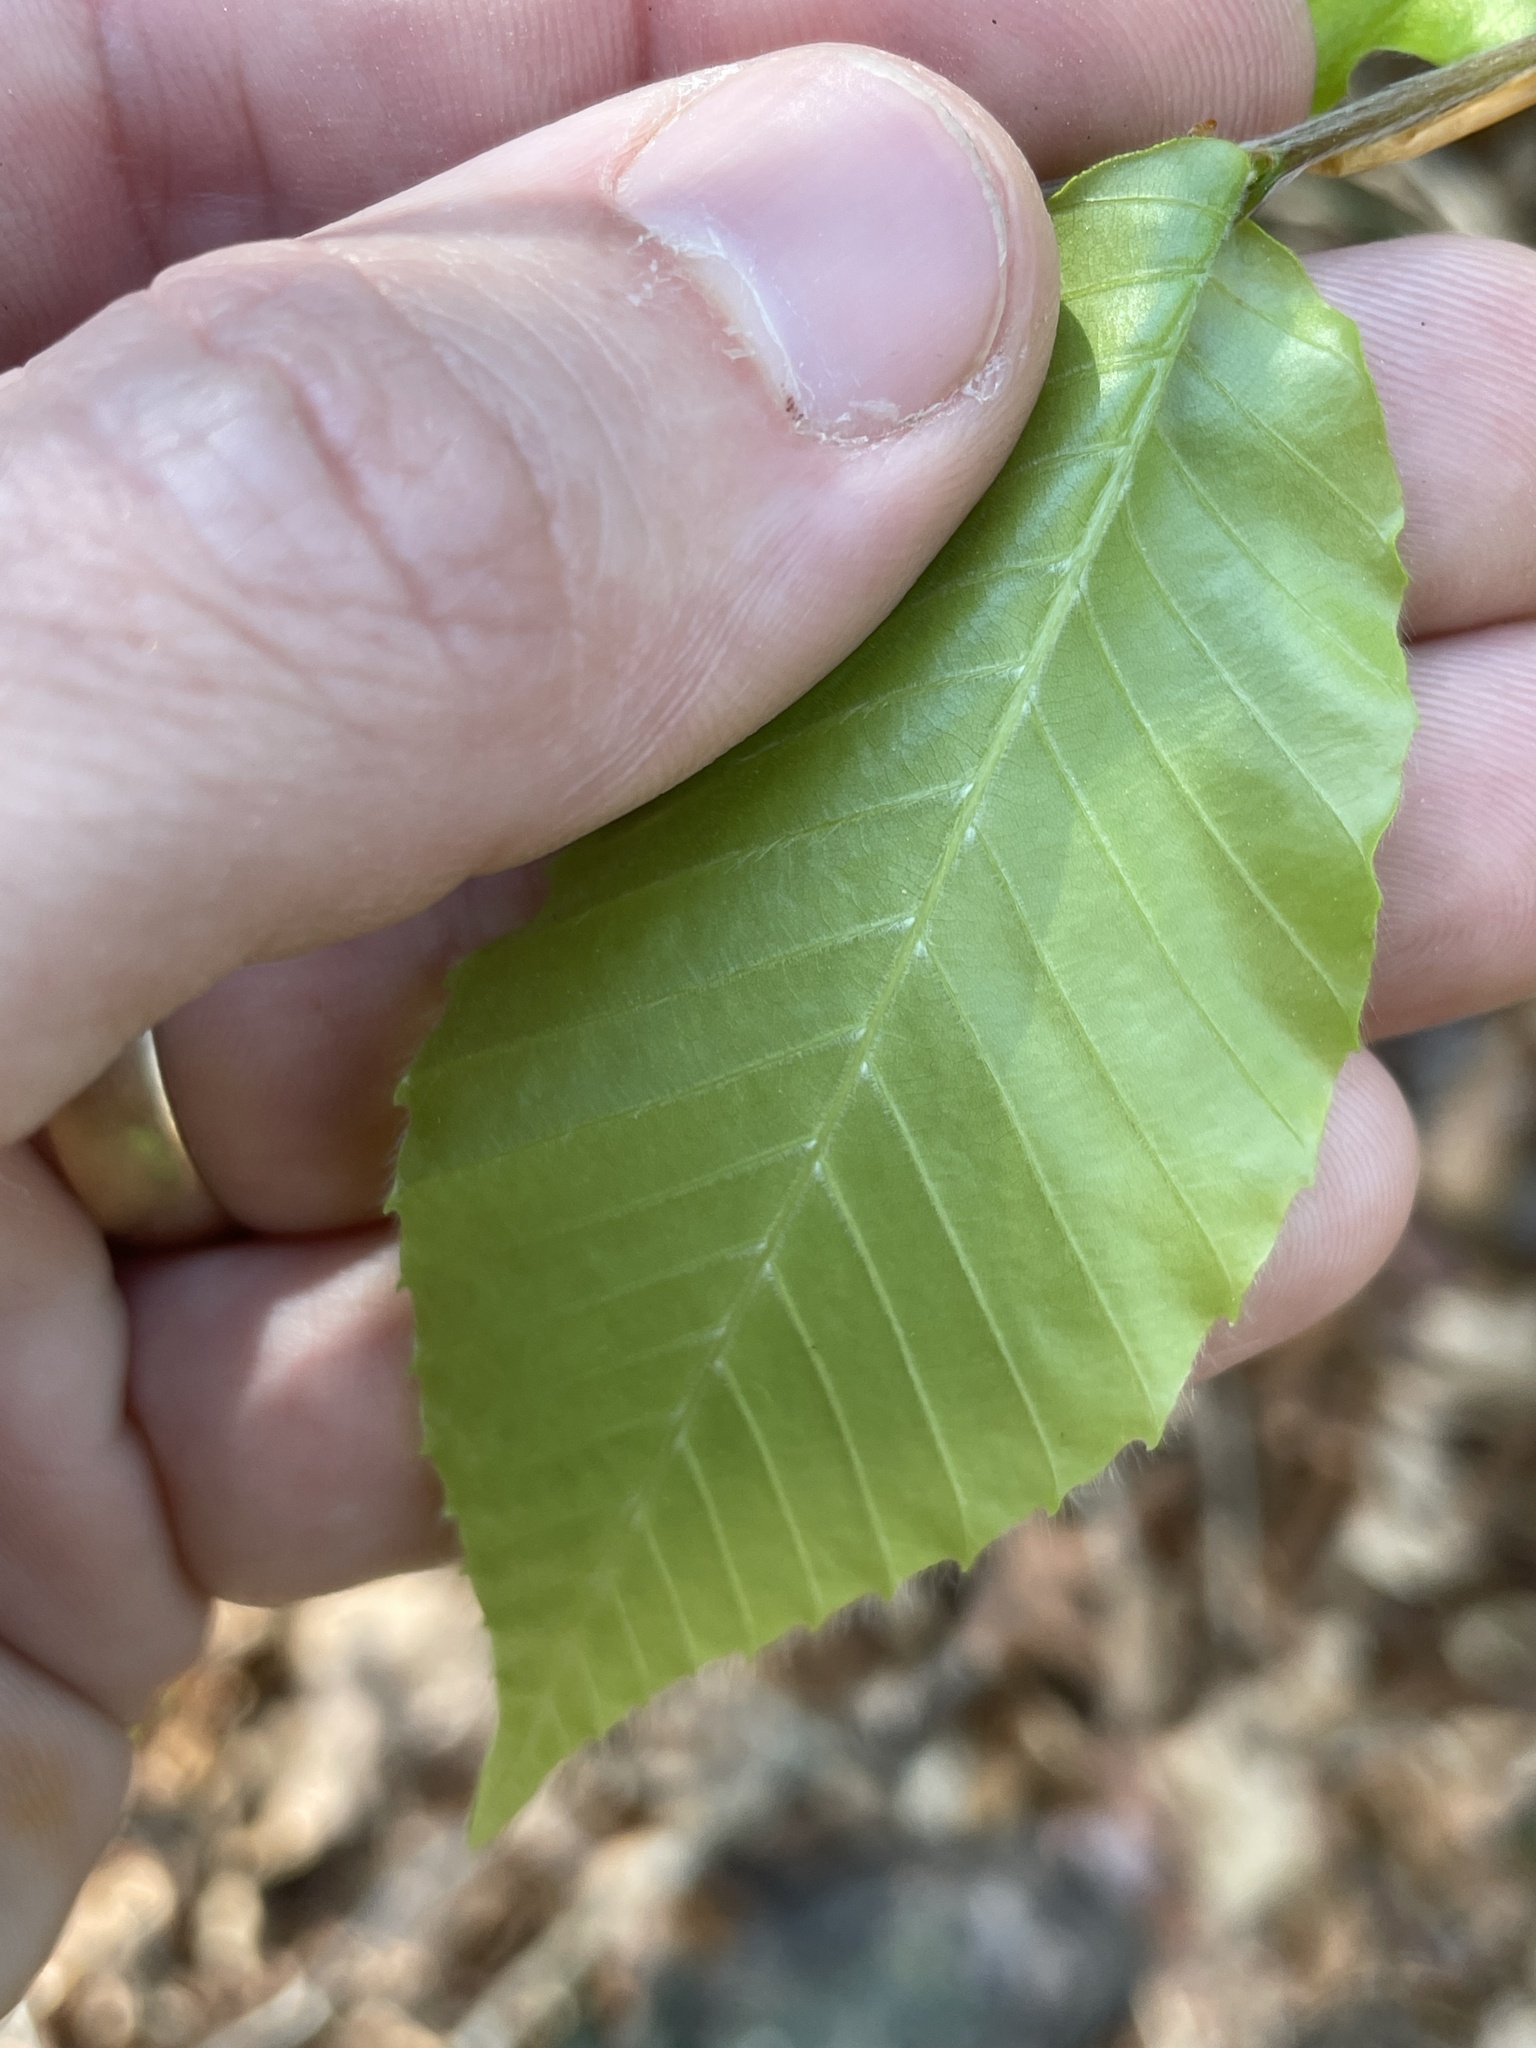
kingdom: Plantae
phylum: Tracheophyta
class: Magnoliopsida
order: Fagales
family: Fagaceae
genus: Fagus
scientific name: Fagus grandifolia
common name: American beech
